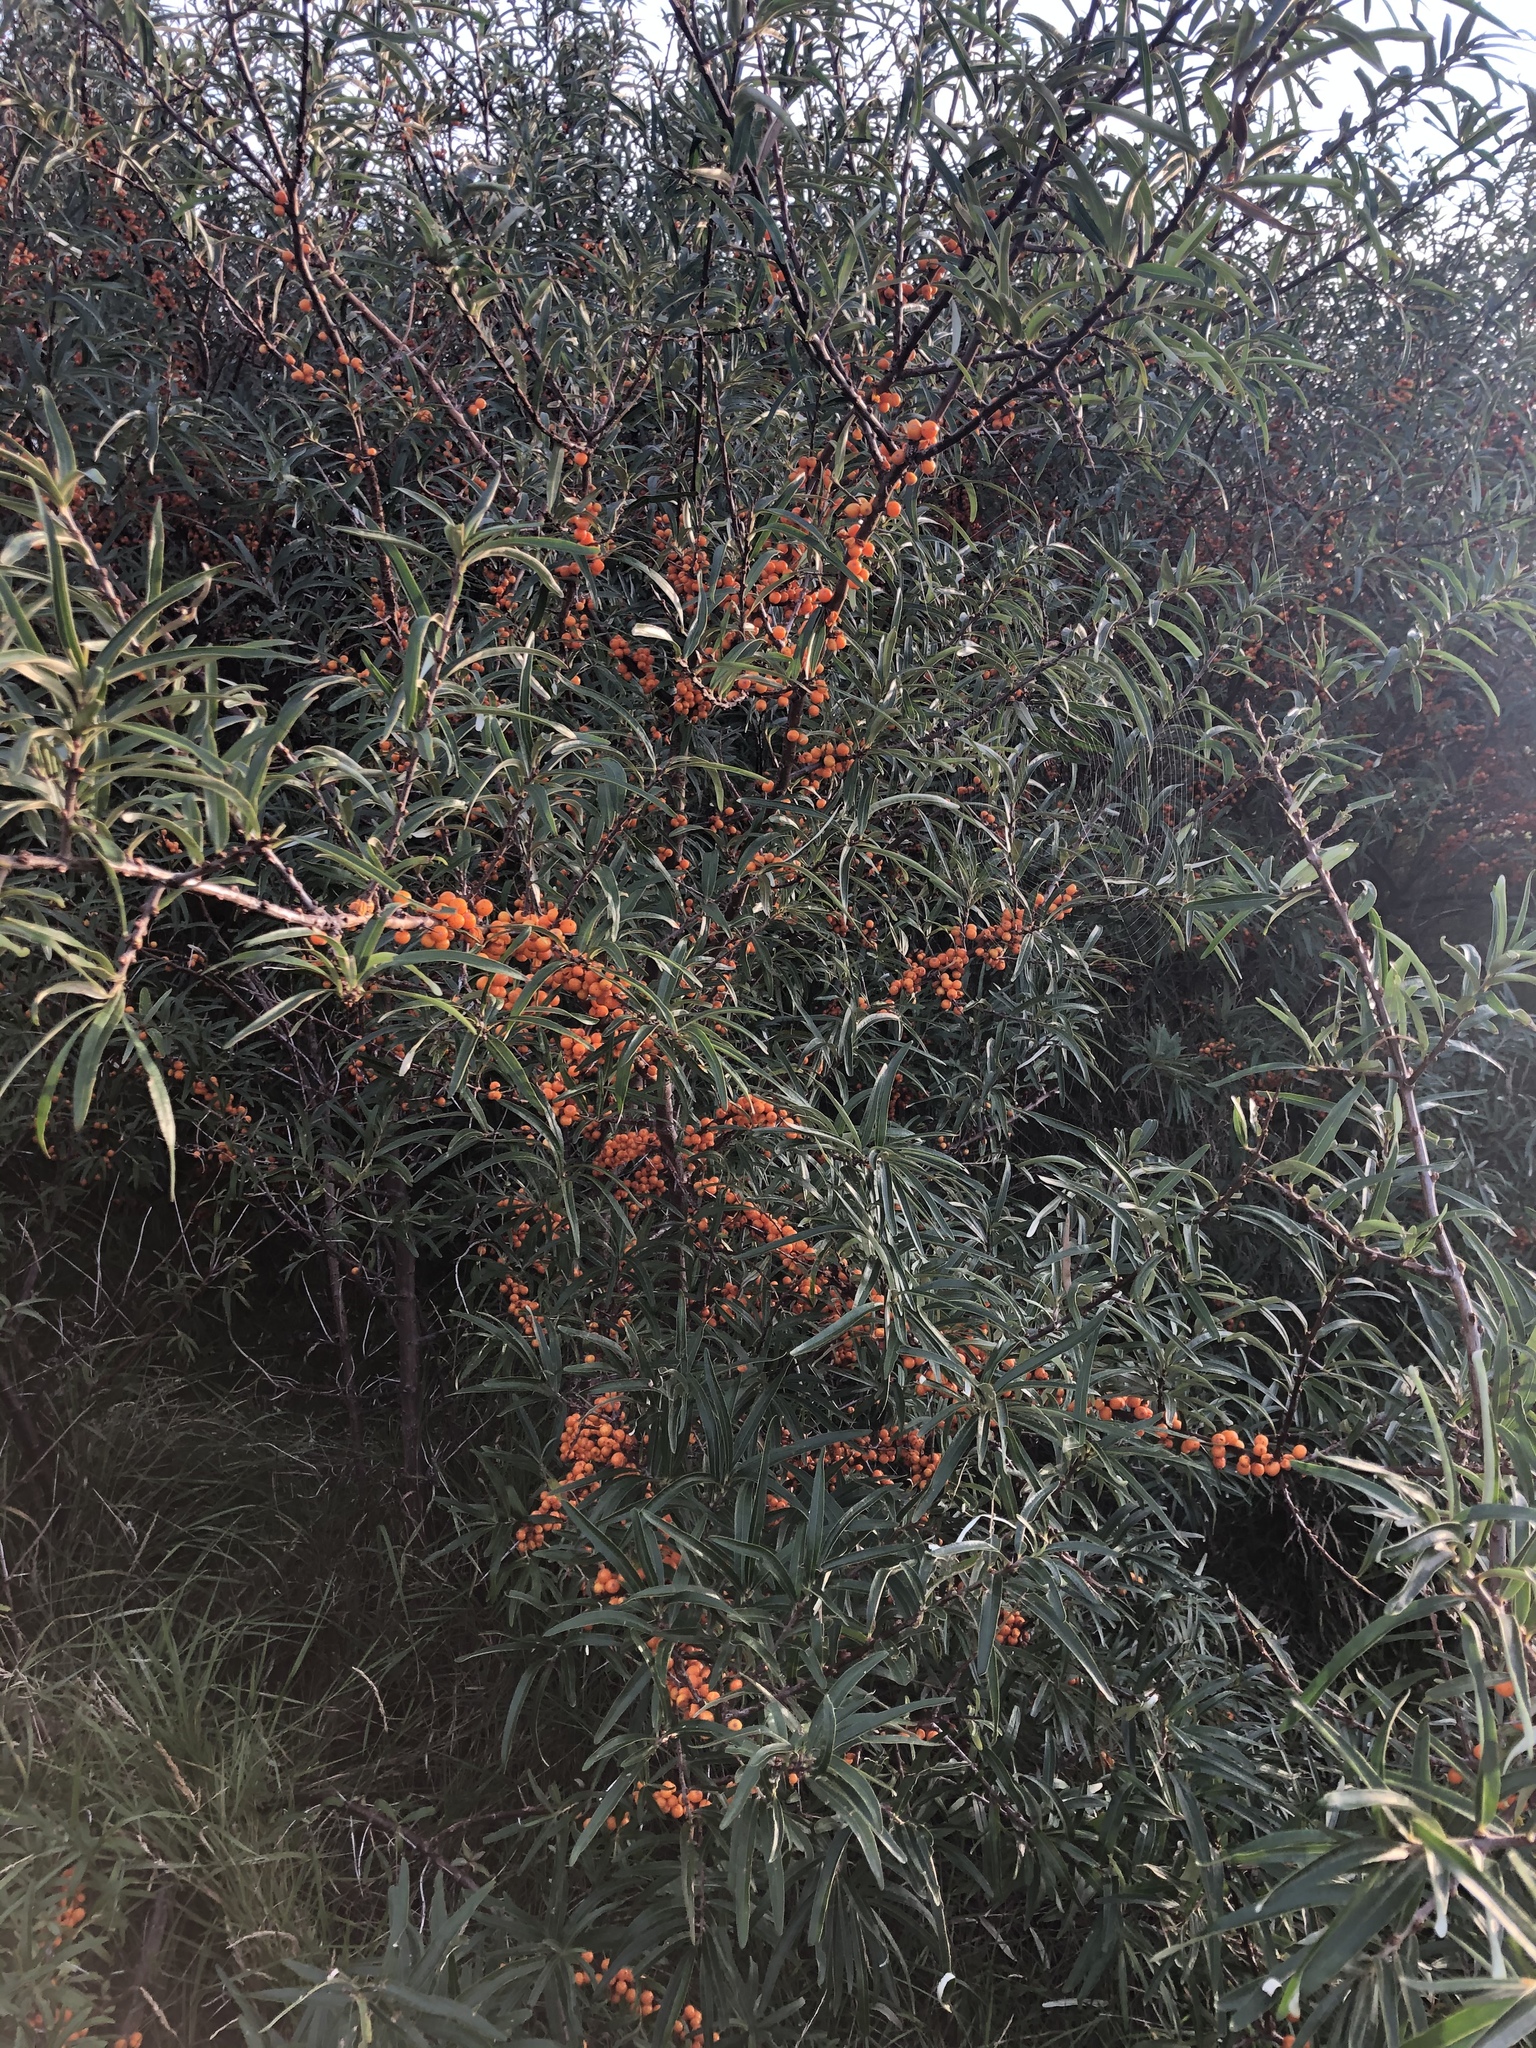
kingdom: Plantae
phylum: Tracheophyta
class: Magnoliopsida
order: Rosales
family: Elaeagnaceae
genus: Hippophae
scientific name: Hippophae rhamnoides
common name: Sea-buckthorn
